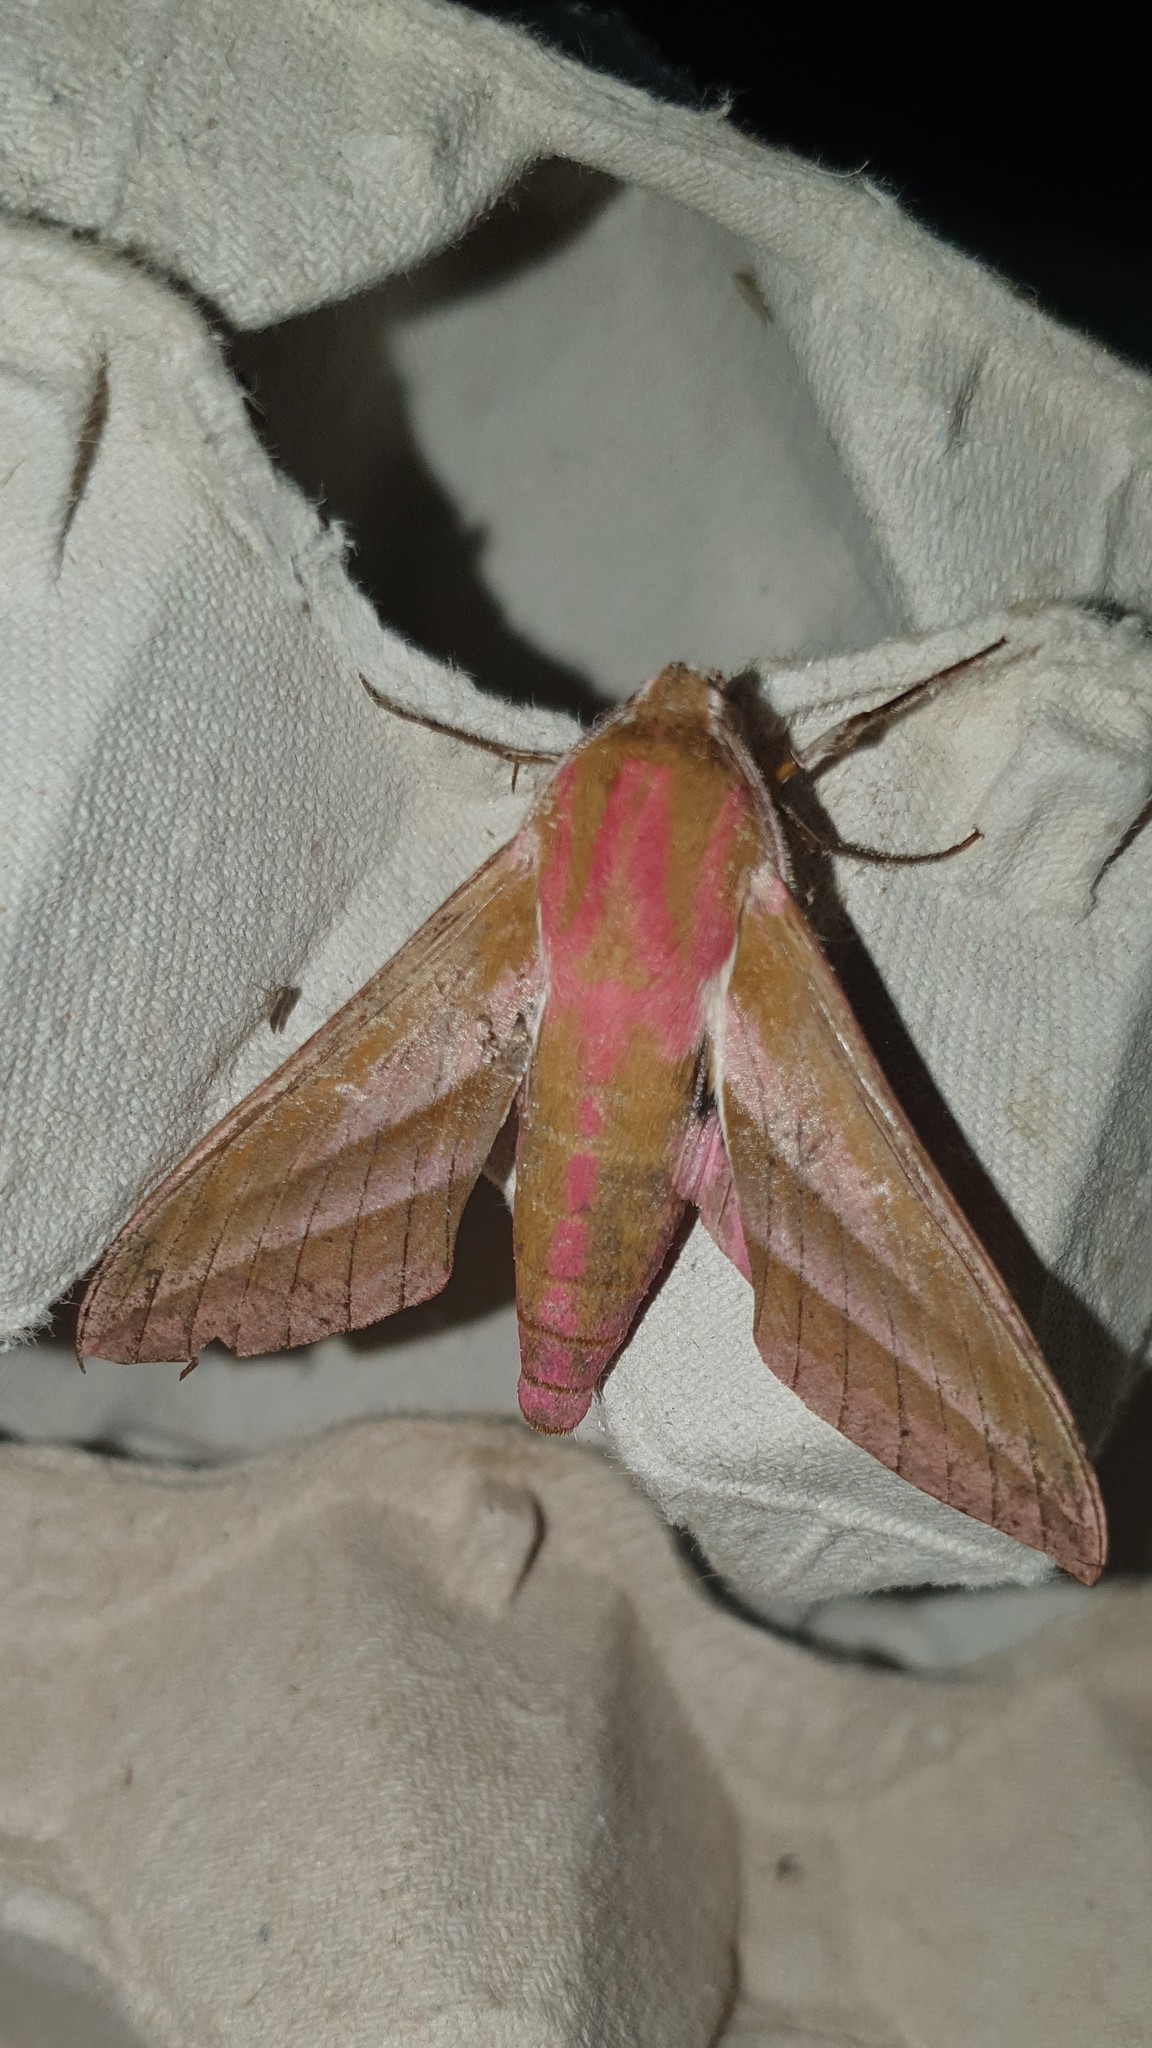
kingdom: Animalia
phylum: Arthropoda
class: Insecta
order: Lepidoptera
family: Sphingidae
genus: Deilephila
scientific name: Deilephila elpenor
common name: Elephant hawk-moth
